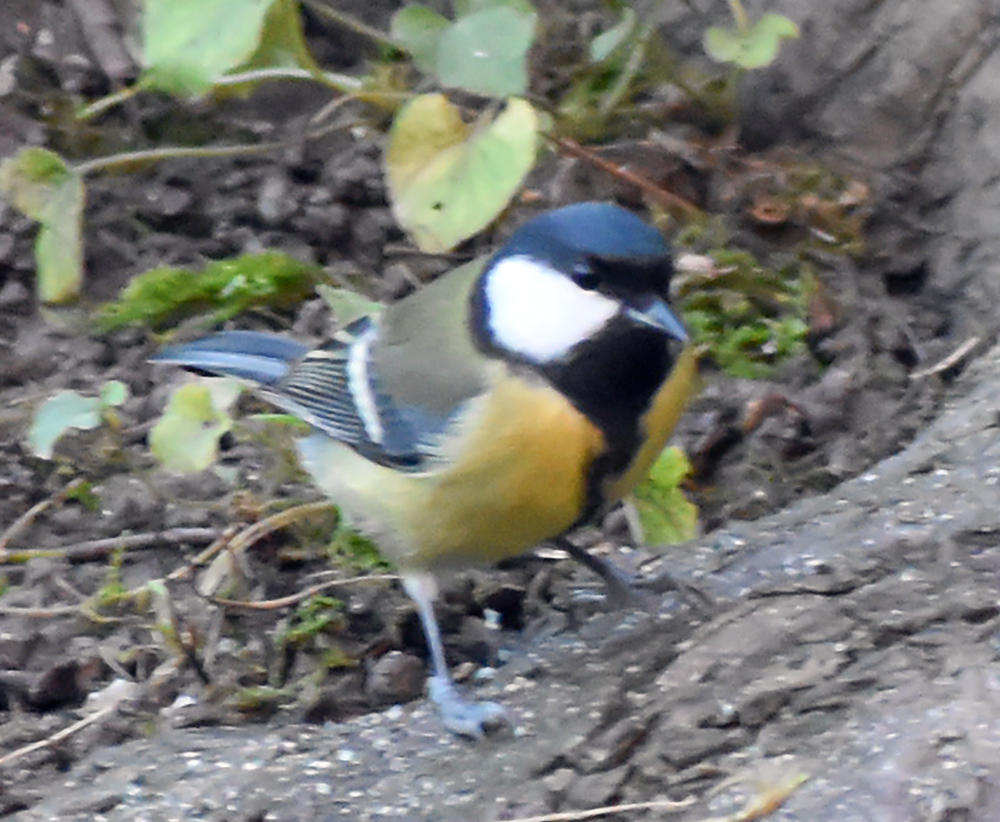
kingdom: Animalia
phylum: Chordata
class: Aves
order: Passeriformes
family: Paridae
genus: Parus
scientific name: Parus major
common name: Great tit
